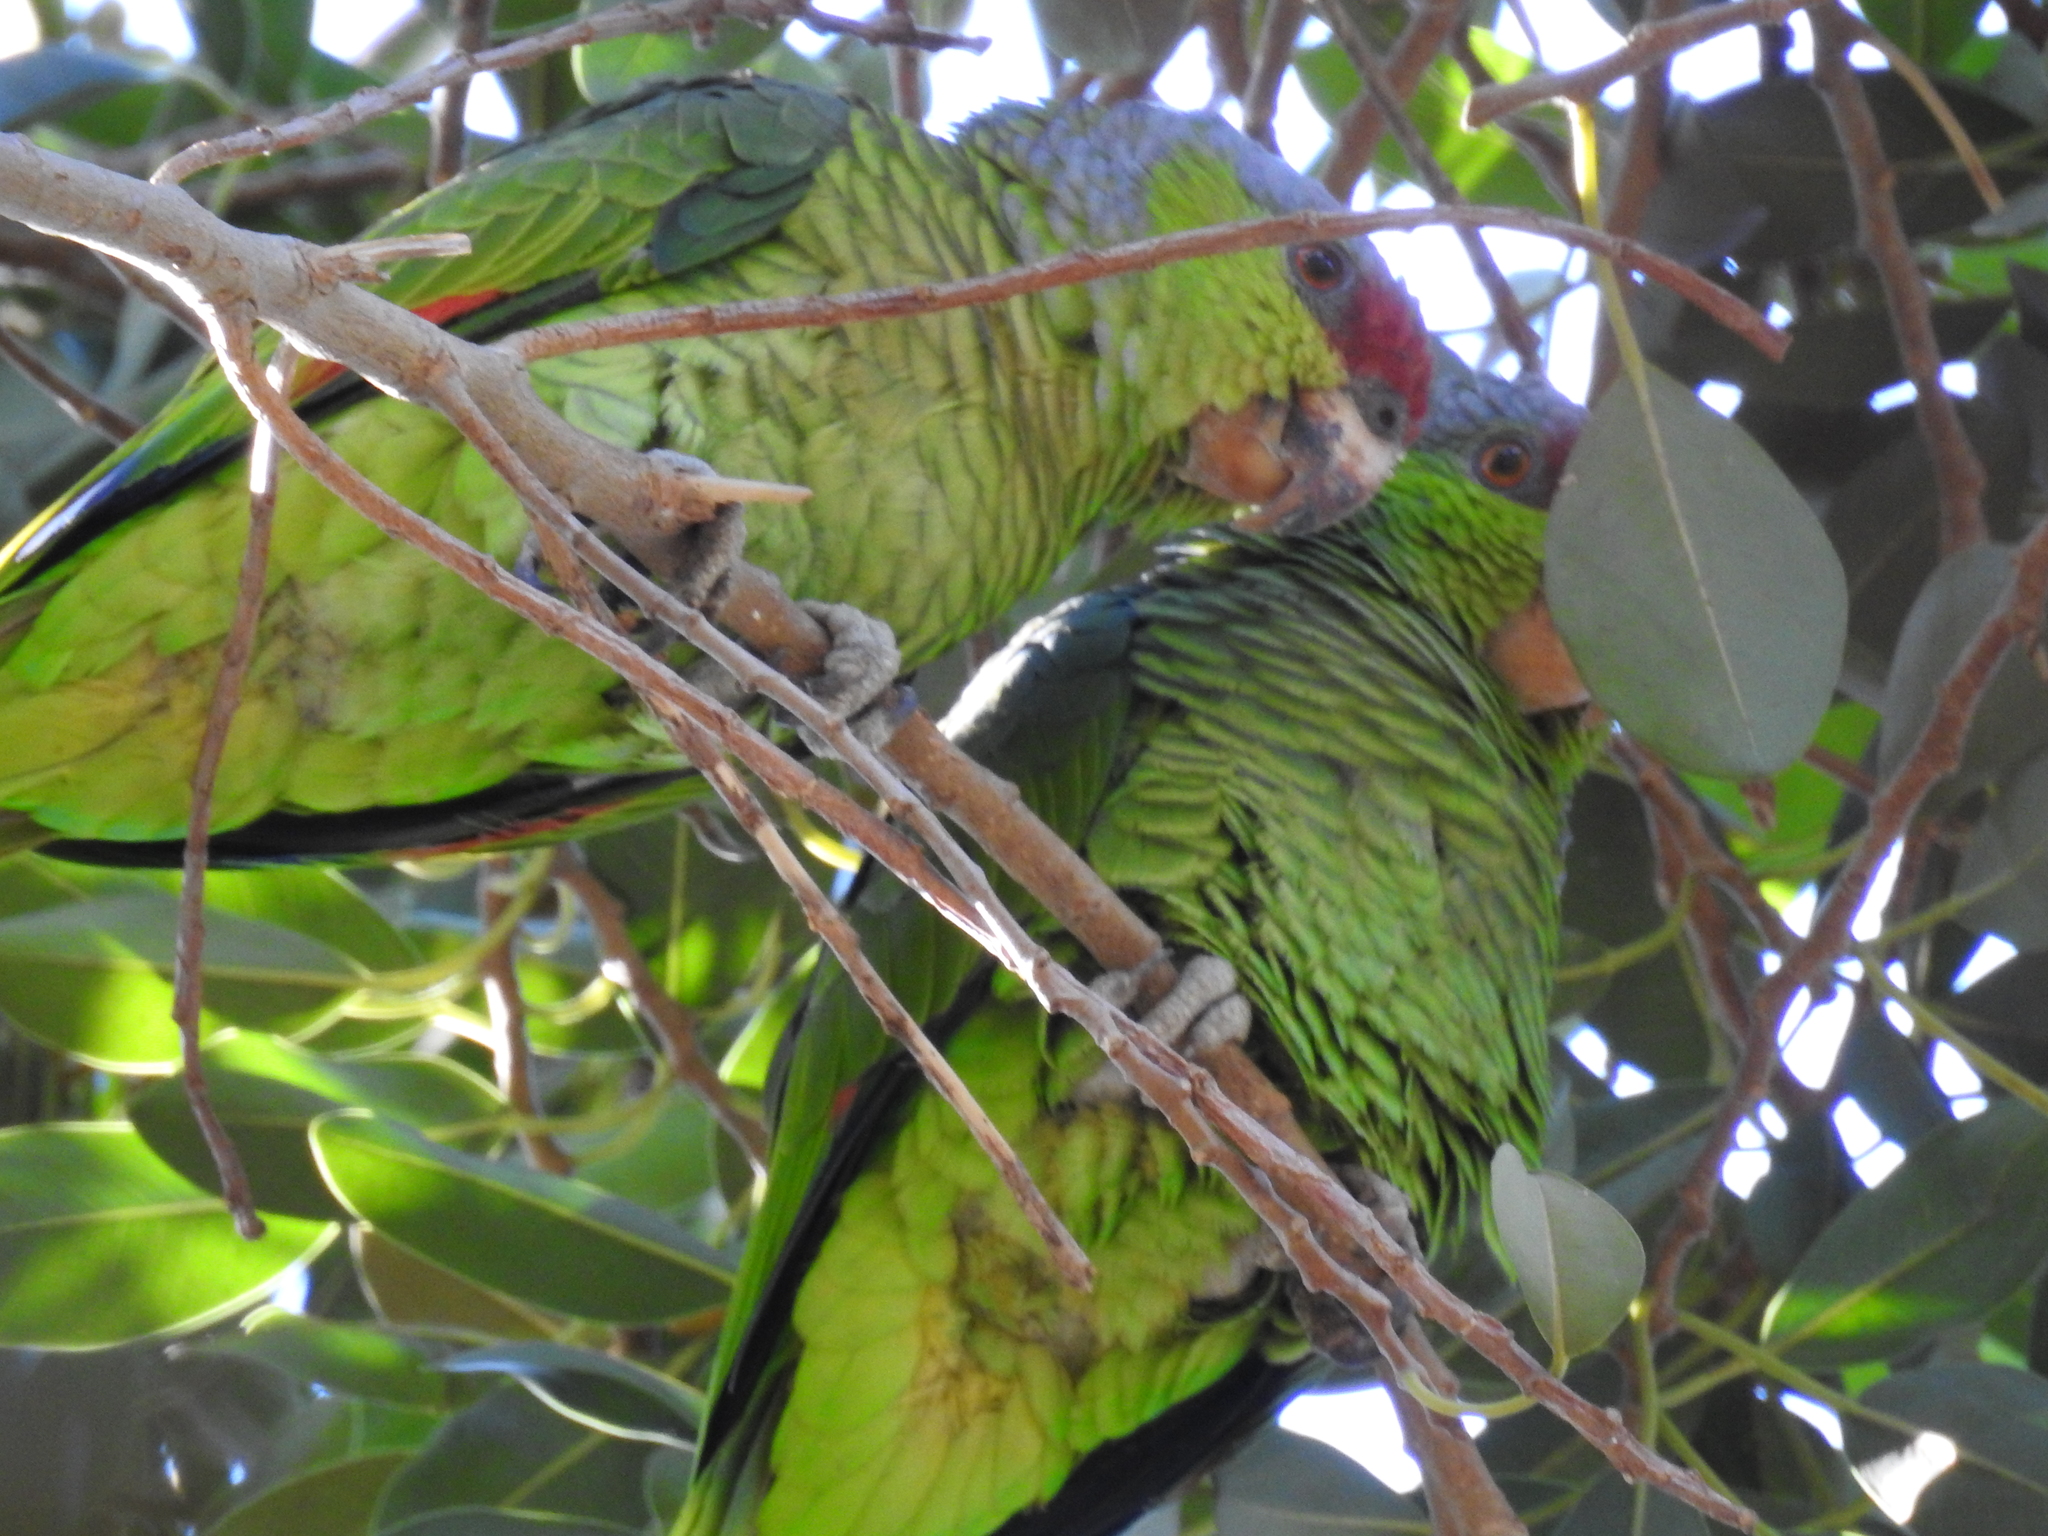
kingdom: Animalia
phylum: Chordata
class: Aves
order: Psittaciformes
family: Psittacidae
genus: Amazona
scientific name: Amazona finschi
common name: Lilac-crowned amazon
